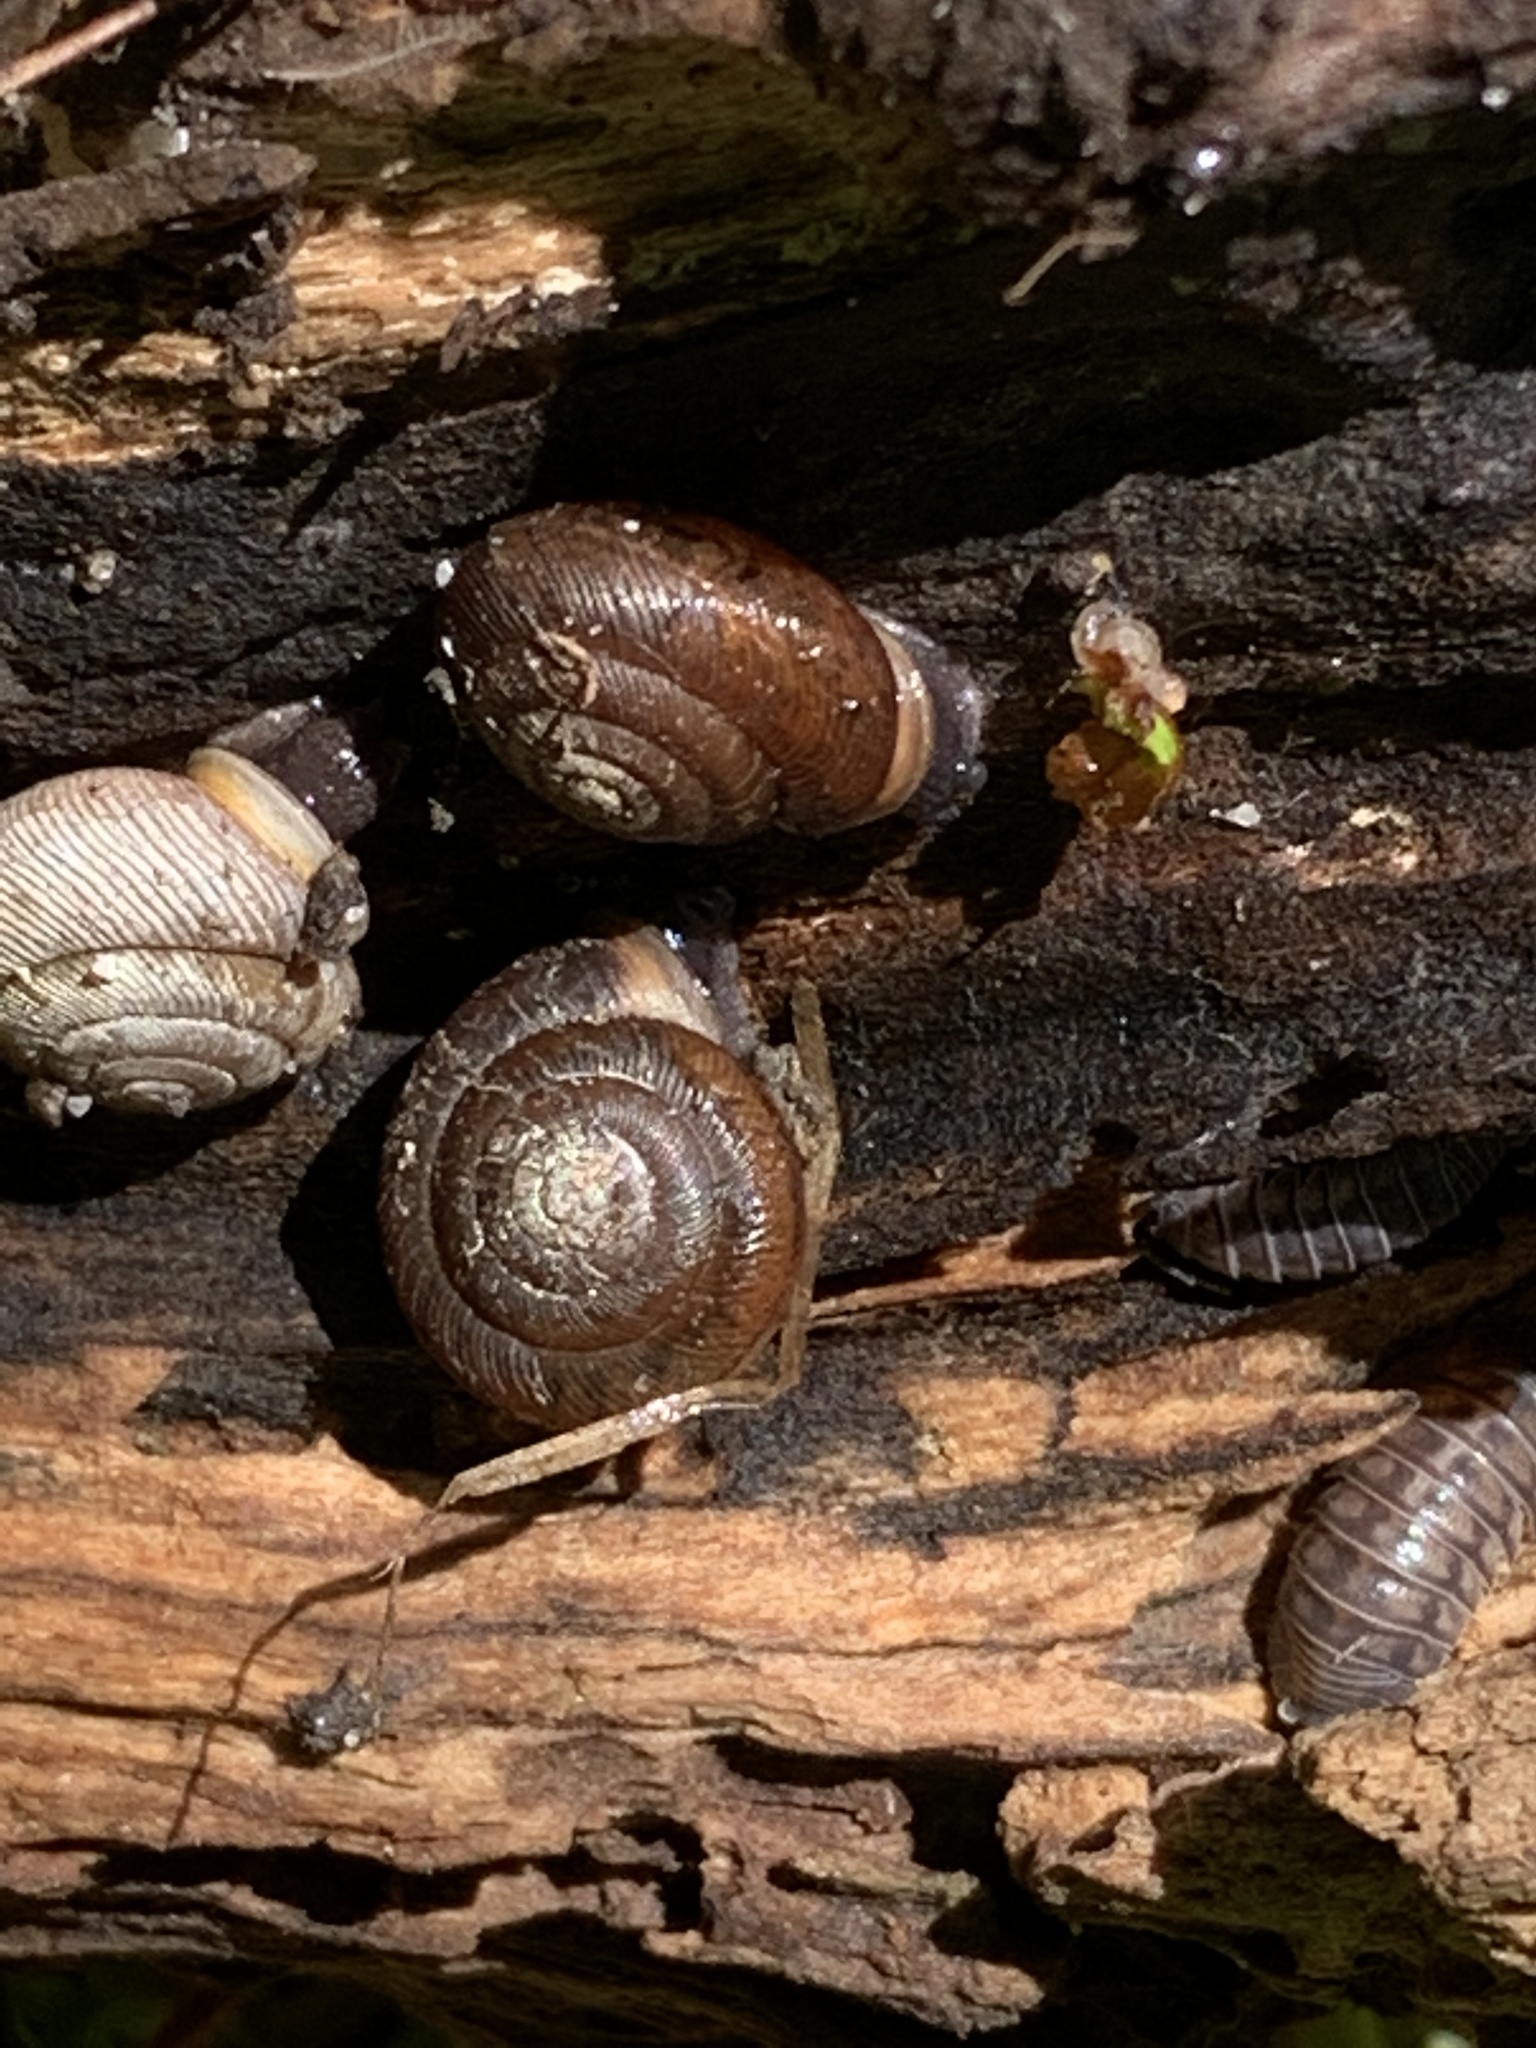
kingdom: Animalia
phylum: Mollusca
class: Gastropoda
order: Stylommatophora
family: Polygyridae
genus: Neohelix
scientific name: Neohelix albolabris
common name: Eastern whitelip
